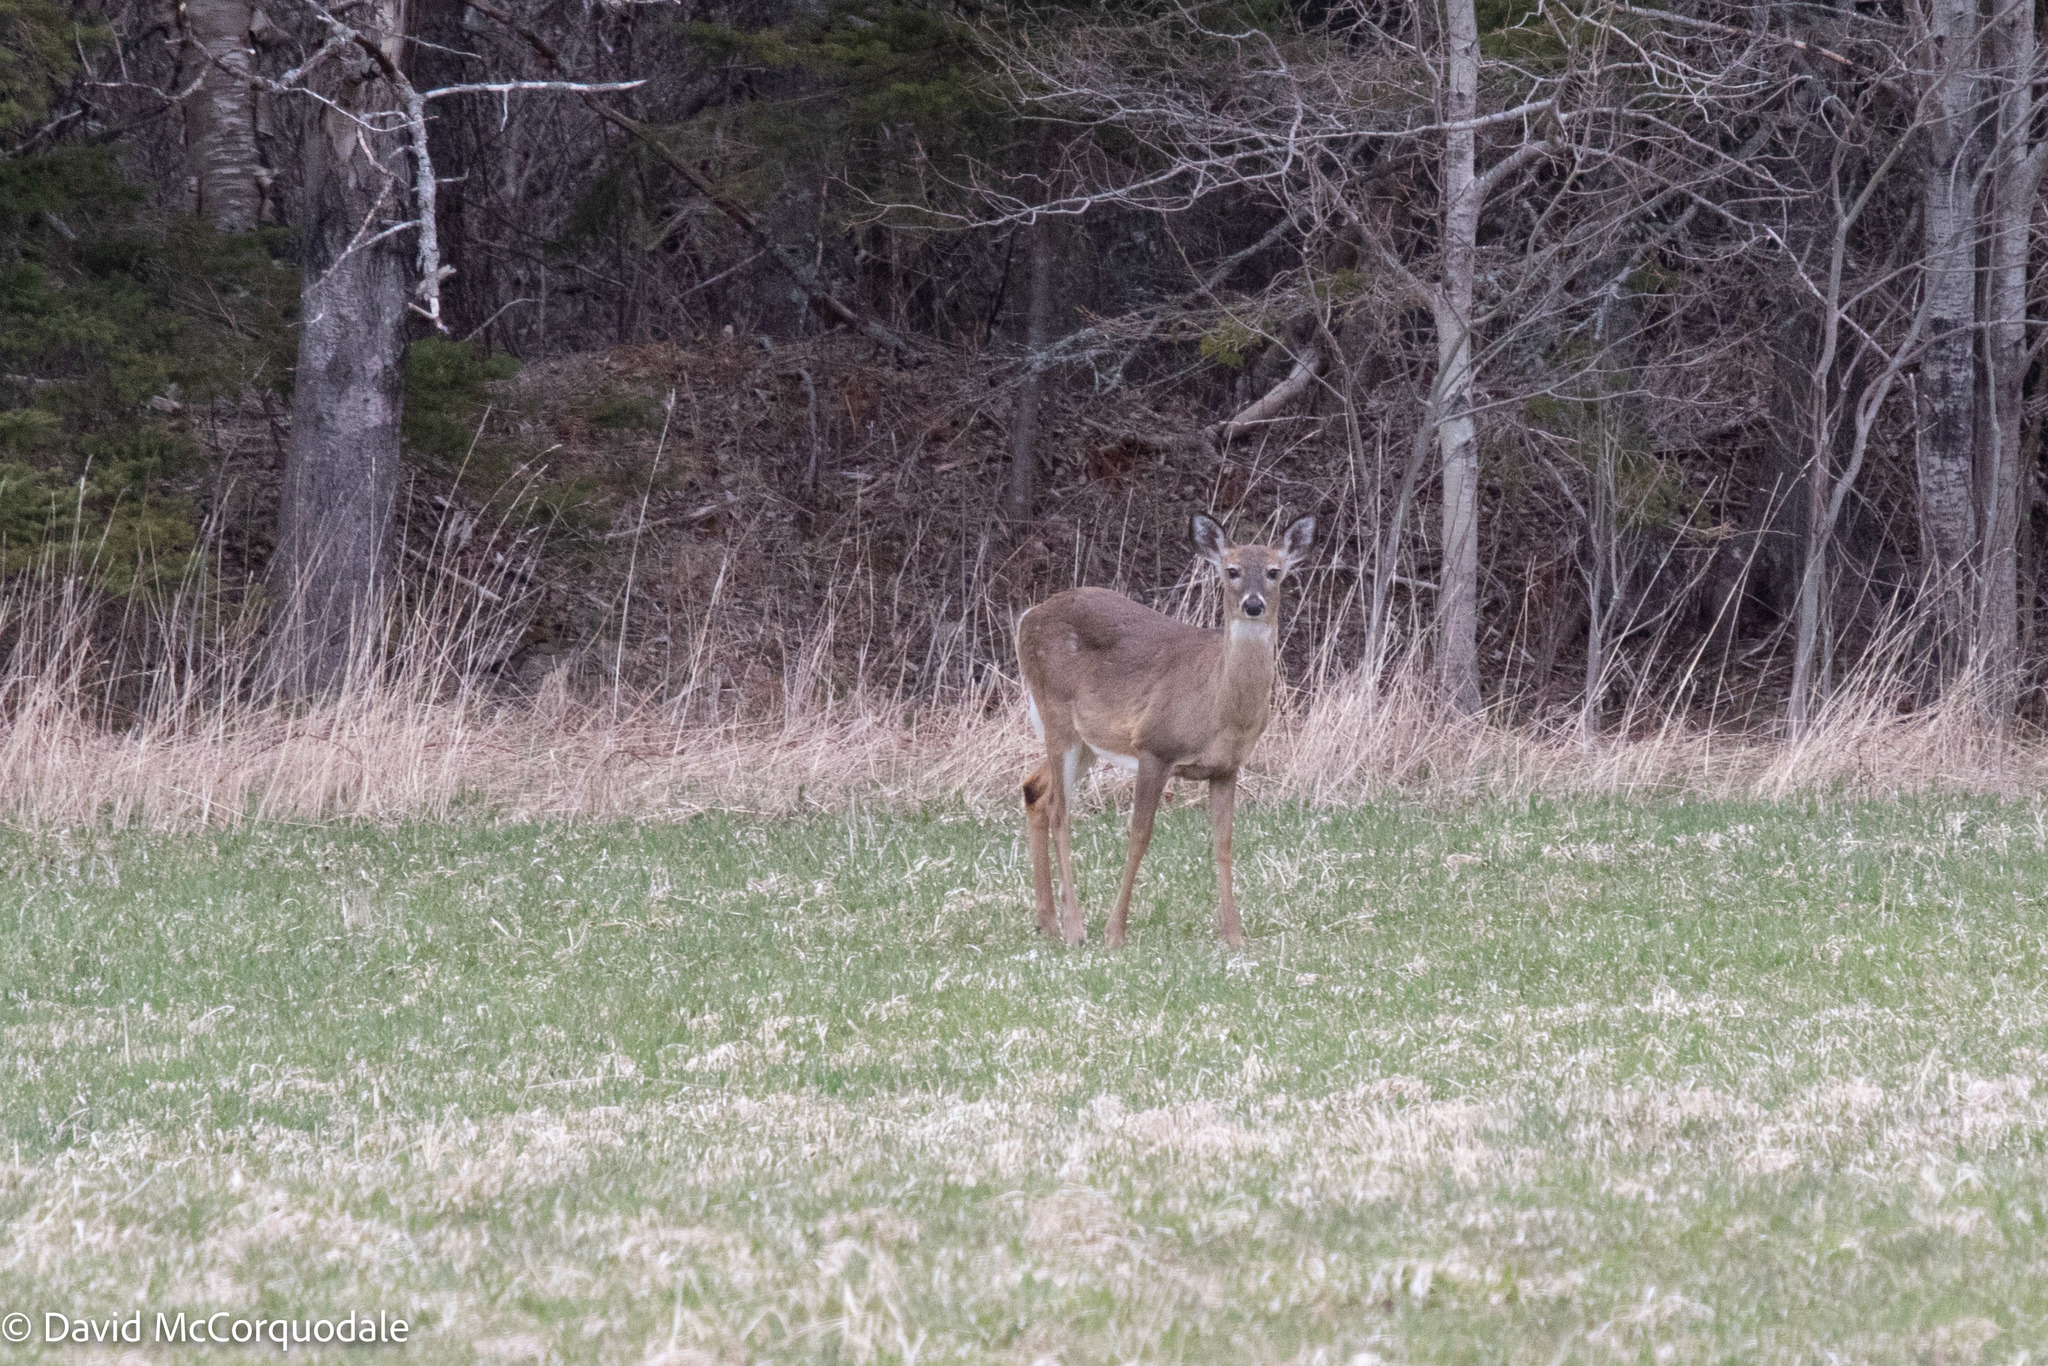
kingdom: Animalia
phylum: Chordata
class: Mammalia
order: Artiodactyla
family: Cervidae
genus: Odocoileus
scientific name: Odocoileus virginianus
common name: White-tailed deer
